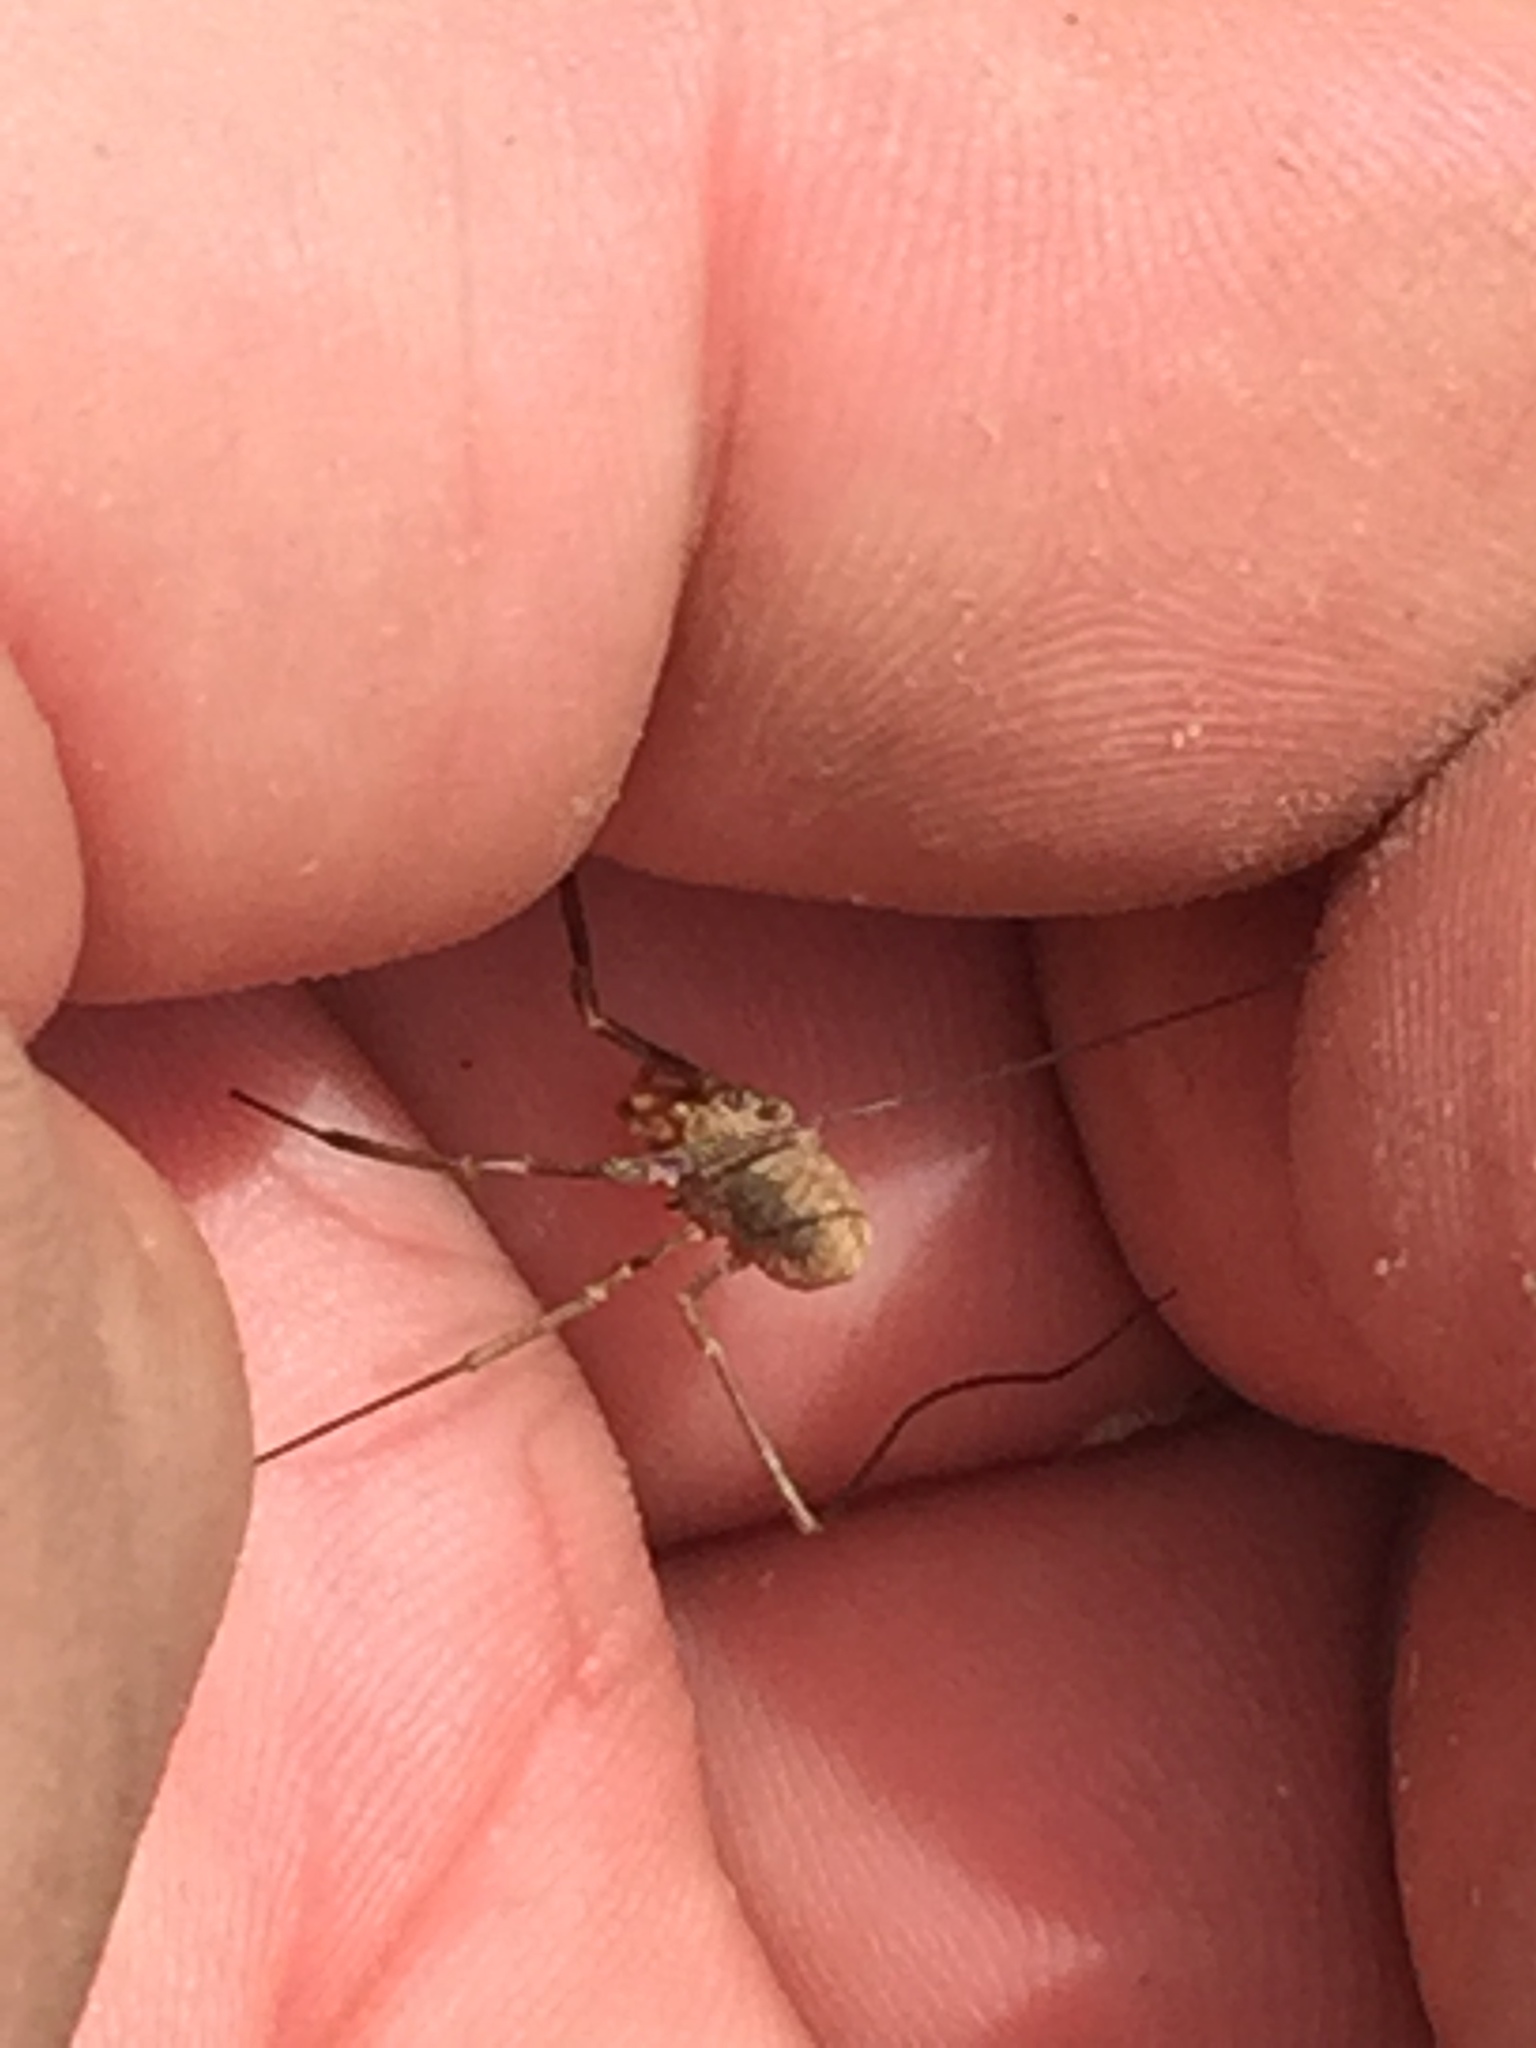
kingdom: Animalia
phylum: Arthropoda
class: Arachnida
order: Opiliones
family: Phalangiidae
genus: Phalangium
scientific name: Phalangium opilio
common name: Daddy longleg
